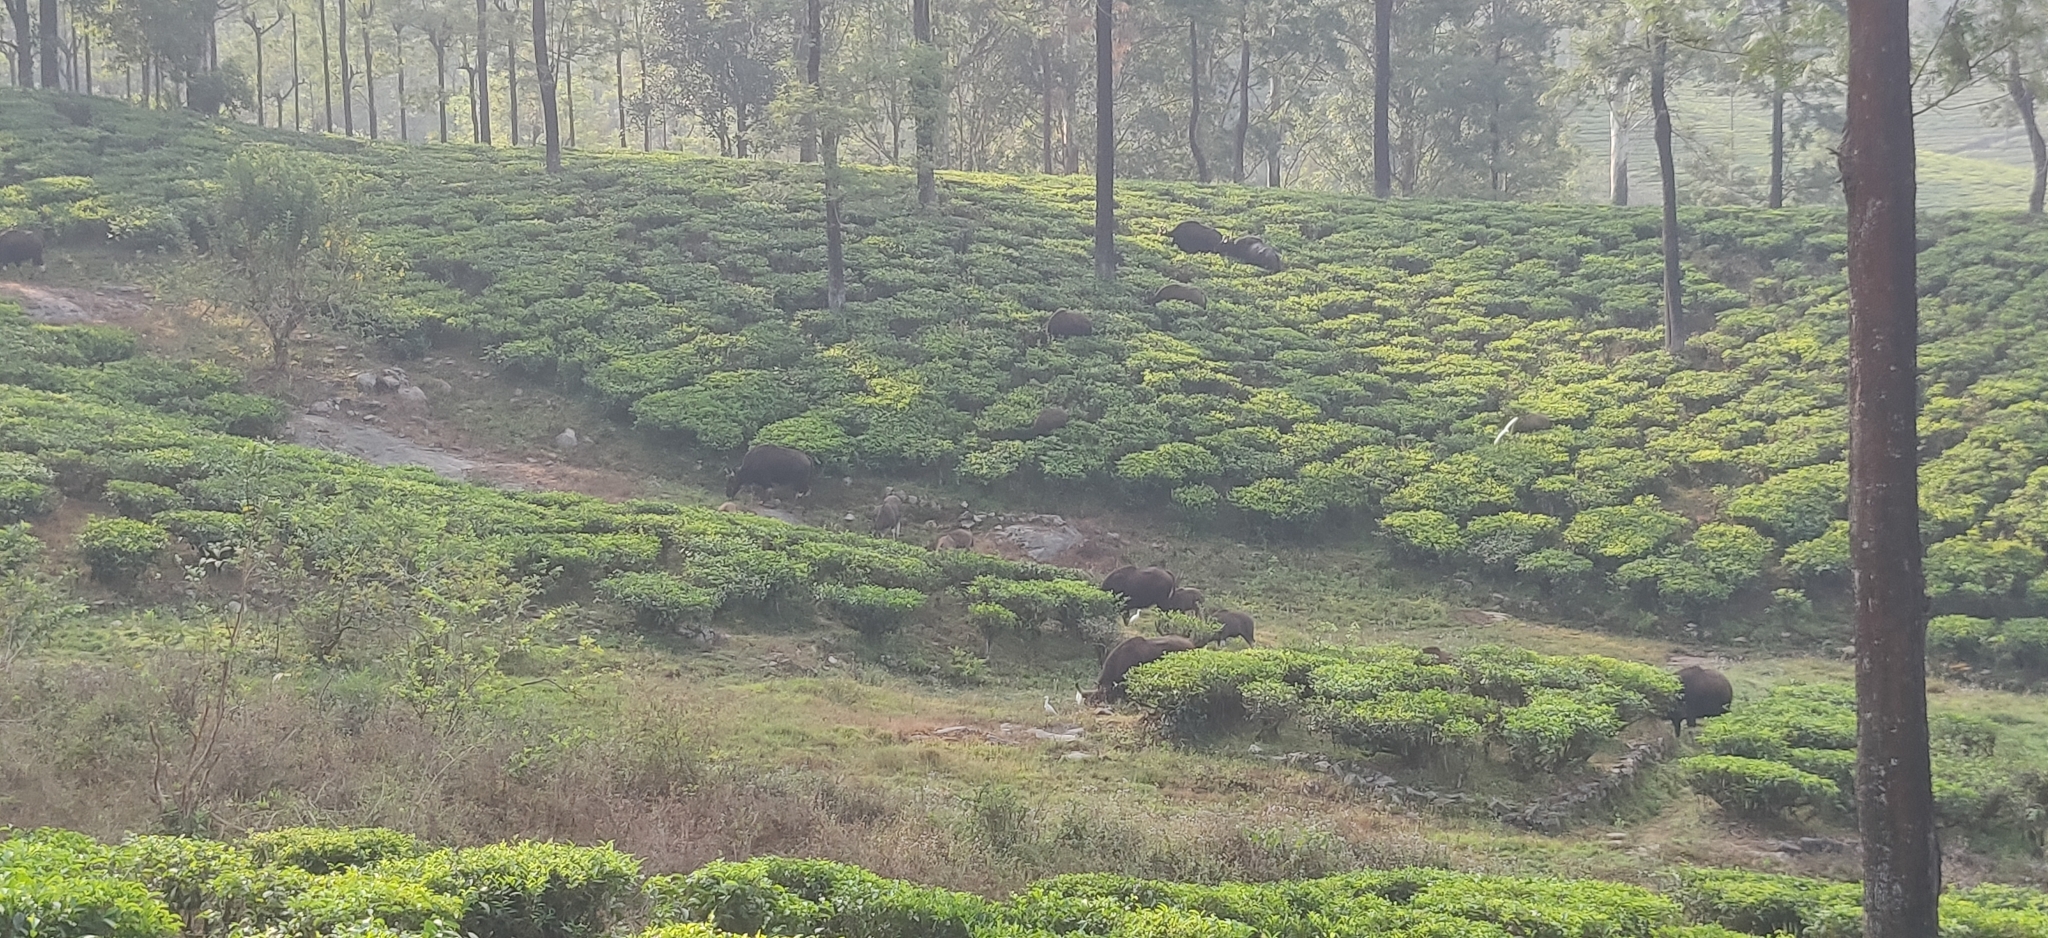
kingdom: Animalia
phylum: Chordata
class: Mammalia
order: Artiodactyla
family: Bovidae
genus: Bos
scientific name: Bos frontalis
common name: Gaur
